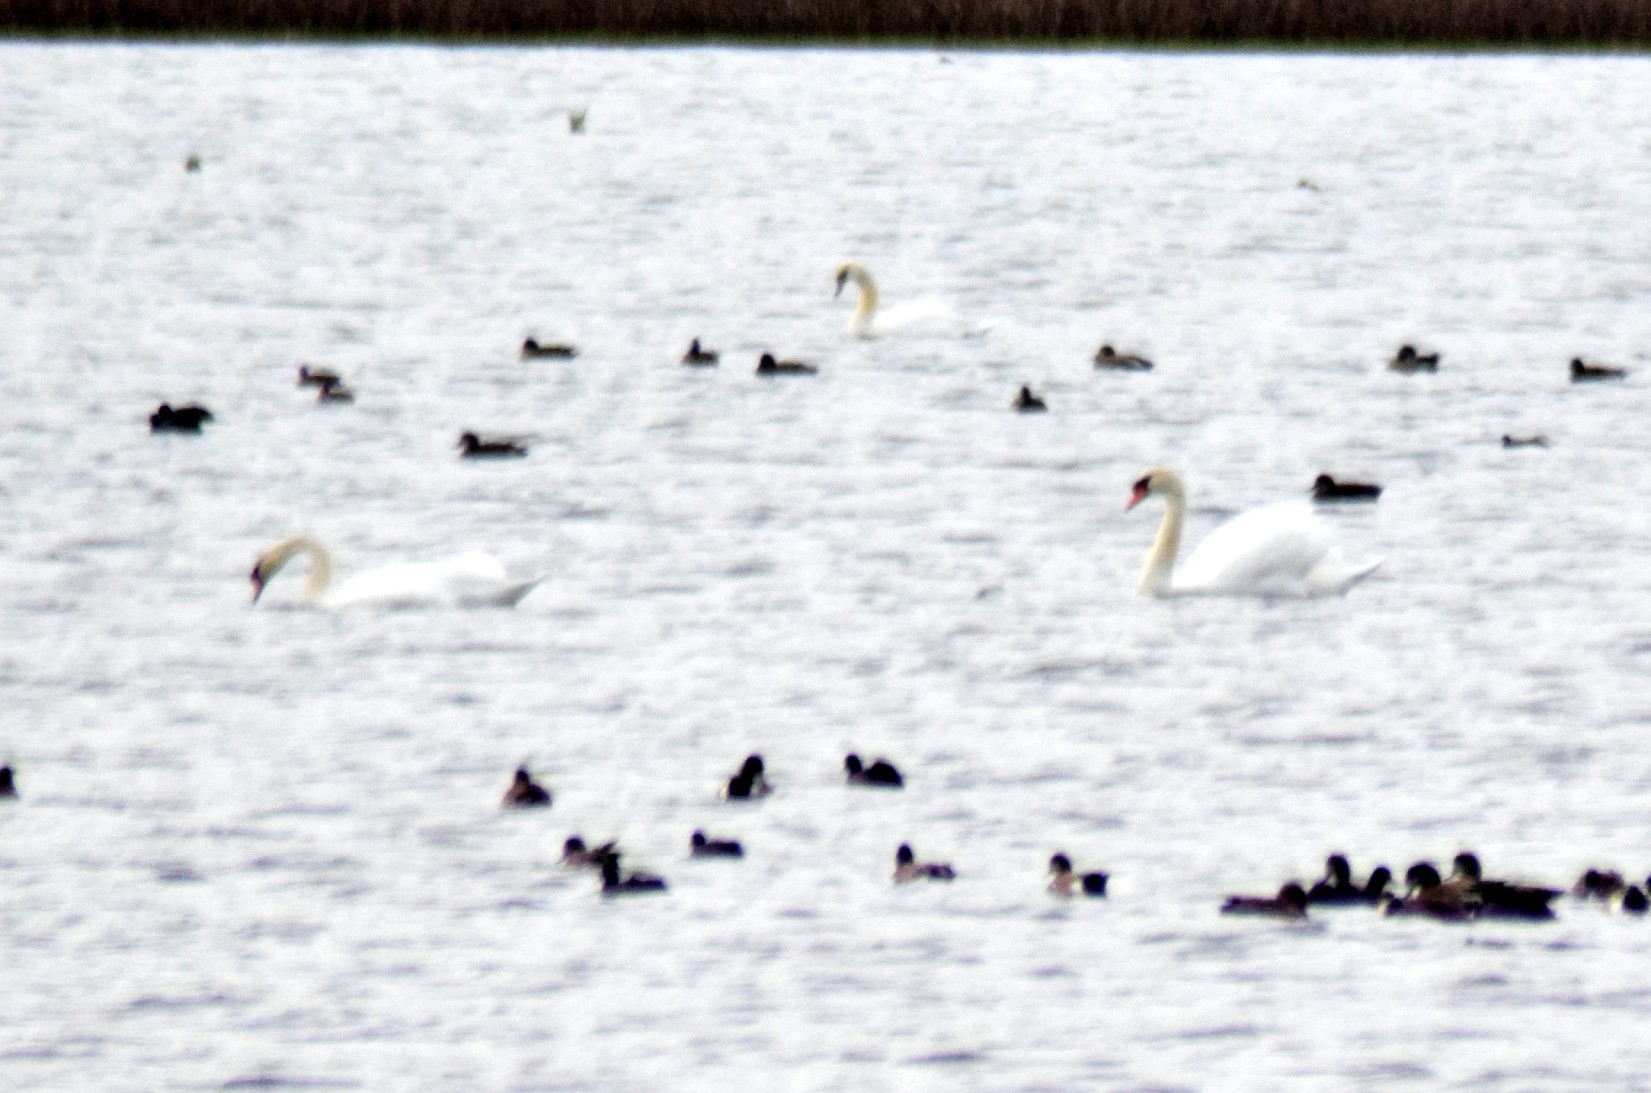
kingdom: Animalia
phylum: Chordata
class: Aves
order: Anseriformes
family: Anatidae
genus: Cygnus
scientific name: Cygnus olor
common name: Mute swan
